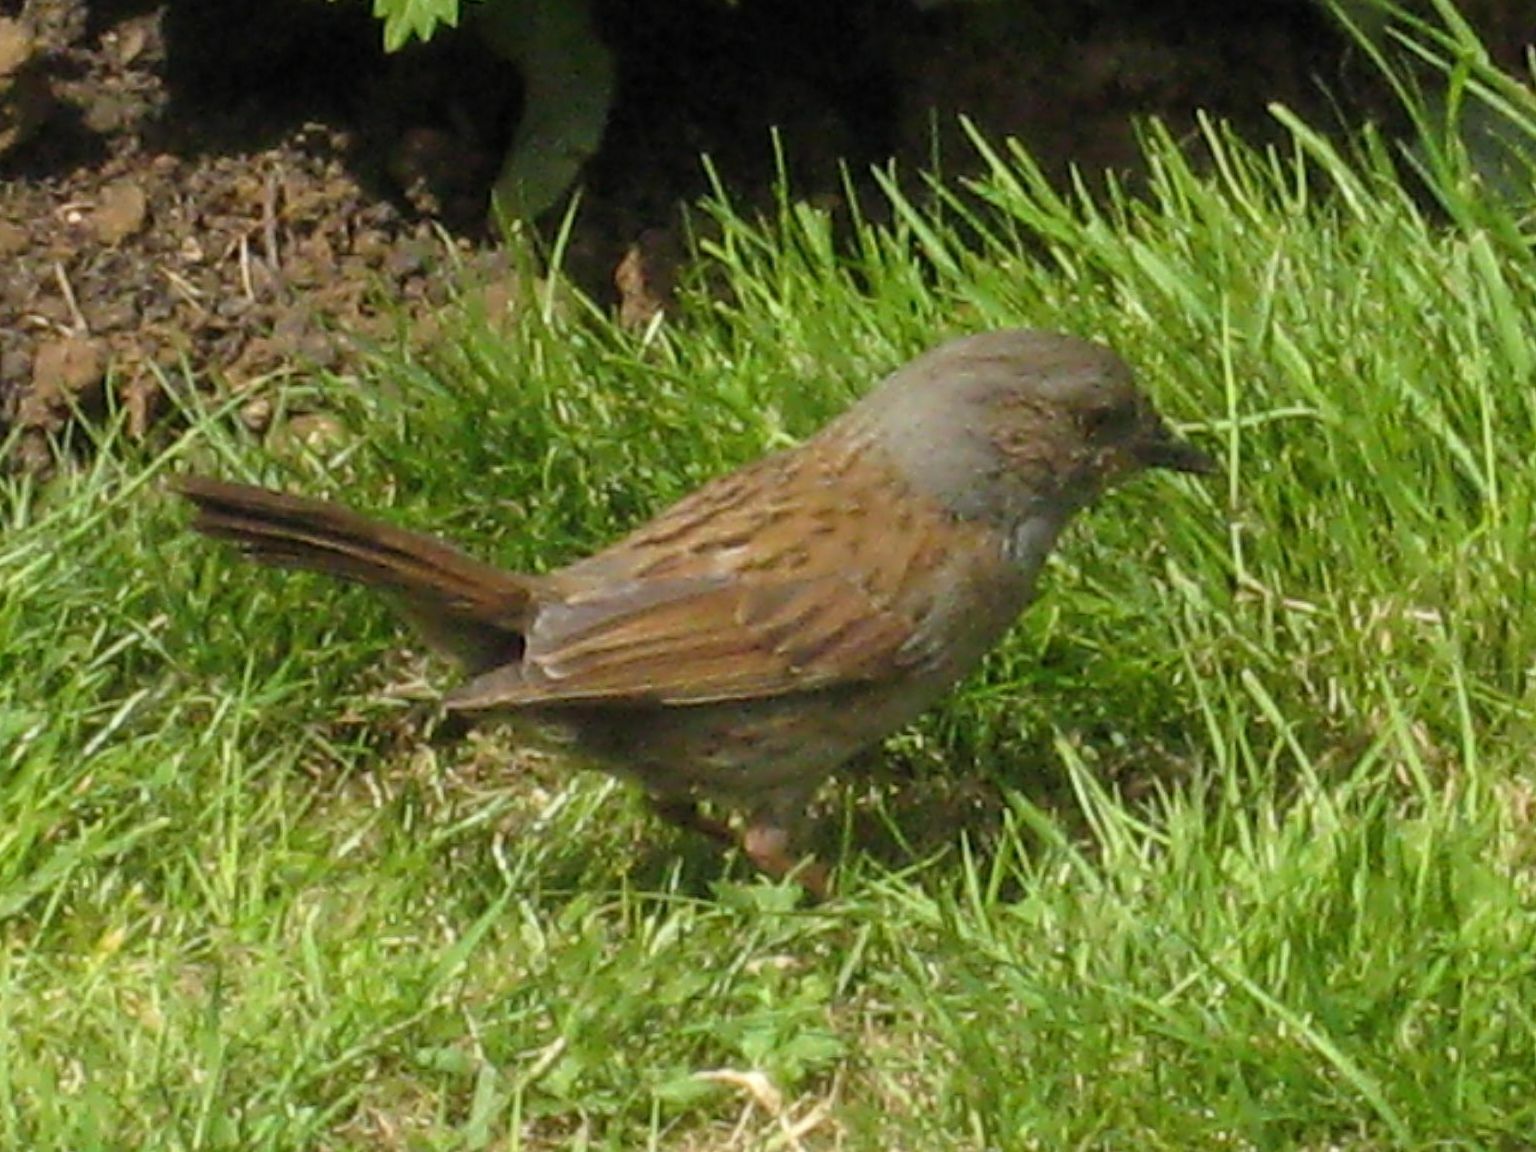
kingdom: Animalia
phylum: Chordata
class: Aves
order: Passeriformes
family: Prunellidae
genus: Prunella
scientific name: Prunella modularis
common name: Dunnock
